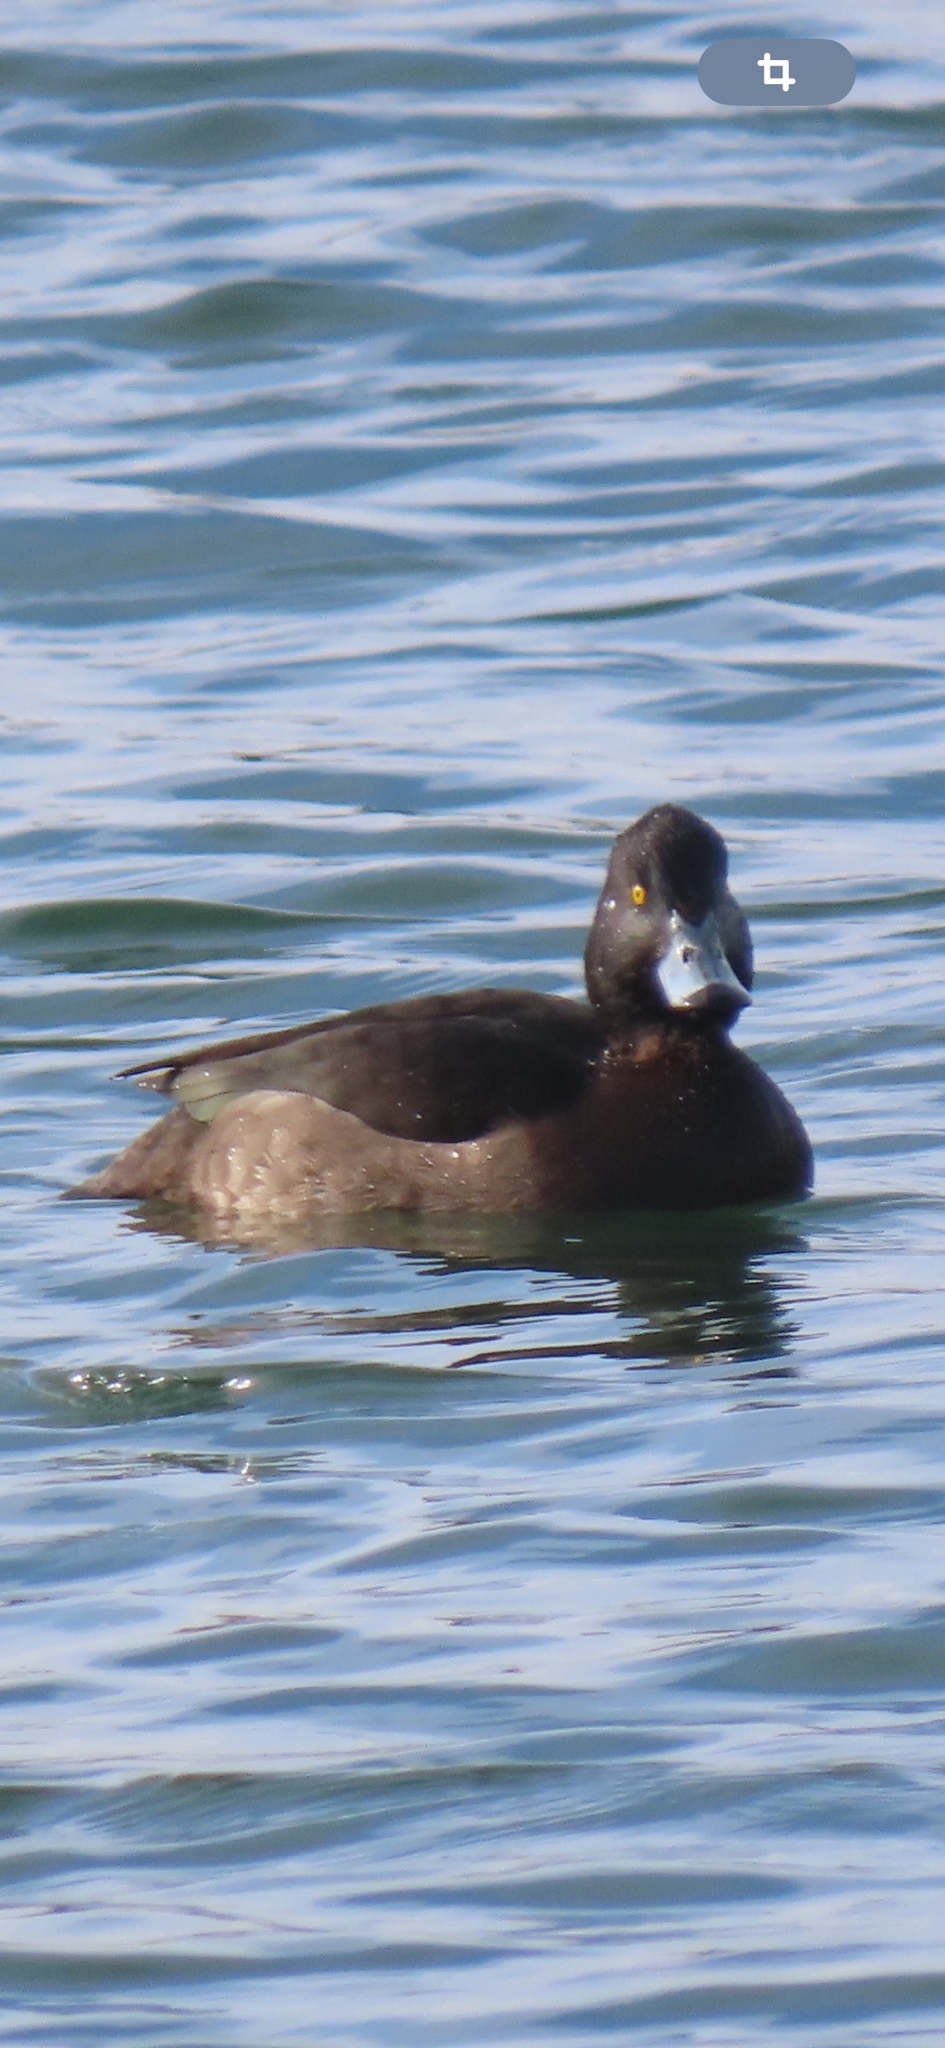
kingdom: Animalia
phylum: Chordata
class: Aves
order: Anseriformes
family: Anatidae
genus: Aythya
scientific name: Aythya fuligula
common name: Tufted duck
